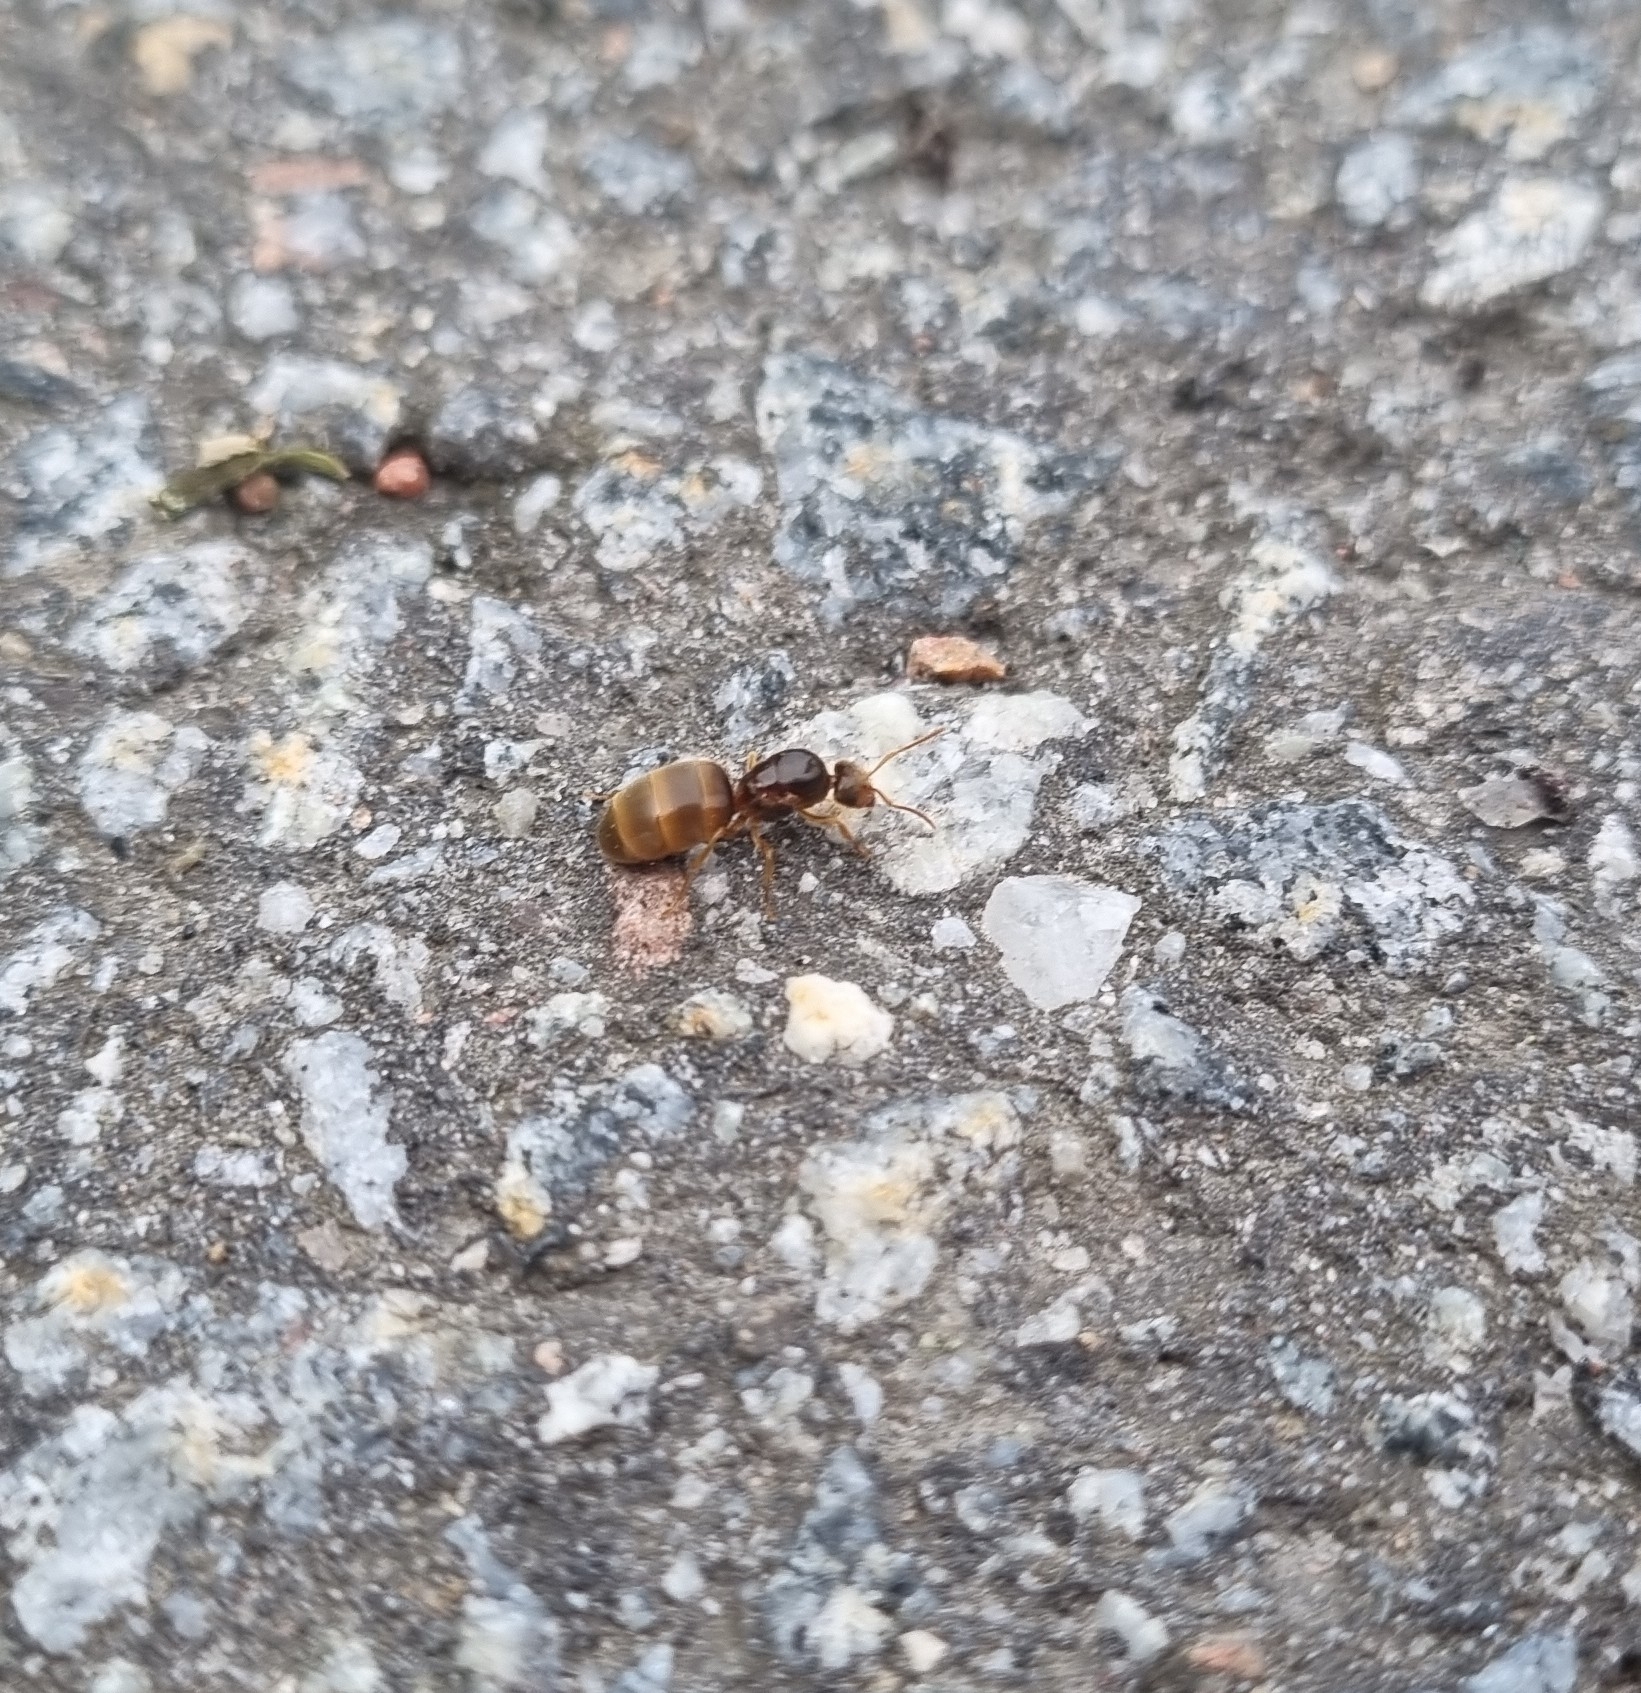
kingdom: Animalia
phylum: Arthropoda
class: Insecta
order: Hymenoptera
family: Formicidae
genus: Lasius
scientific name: Lasius flavus
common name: Blond field ant
